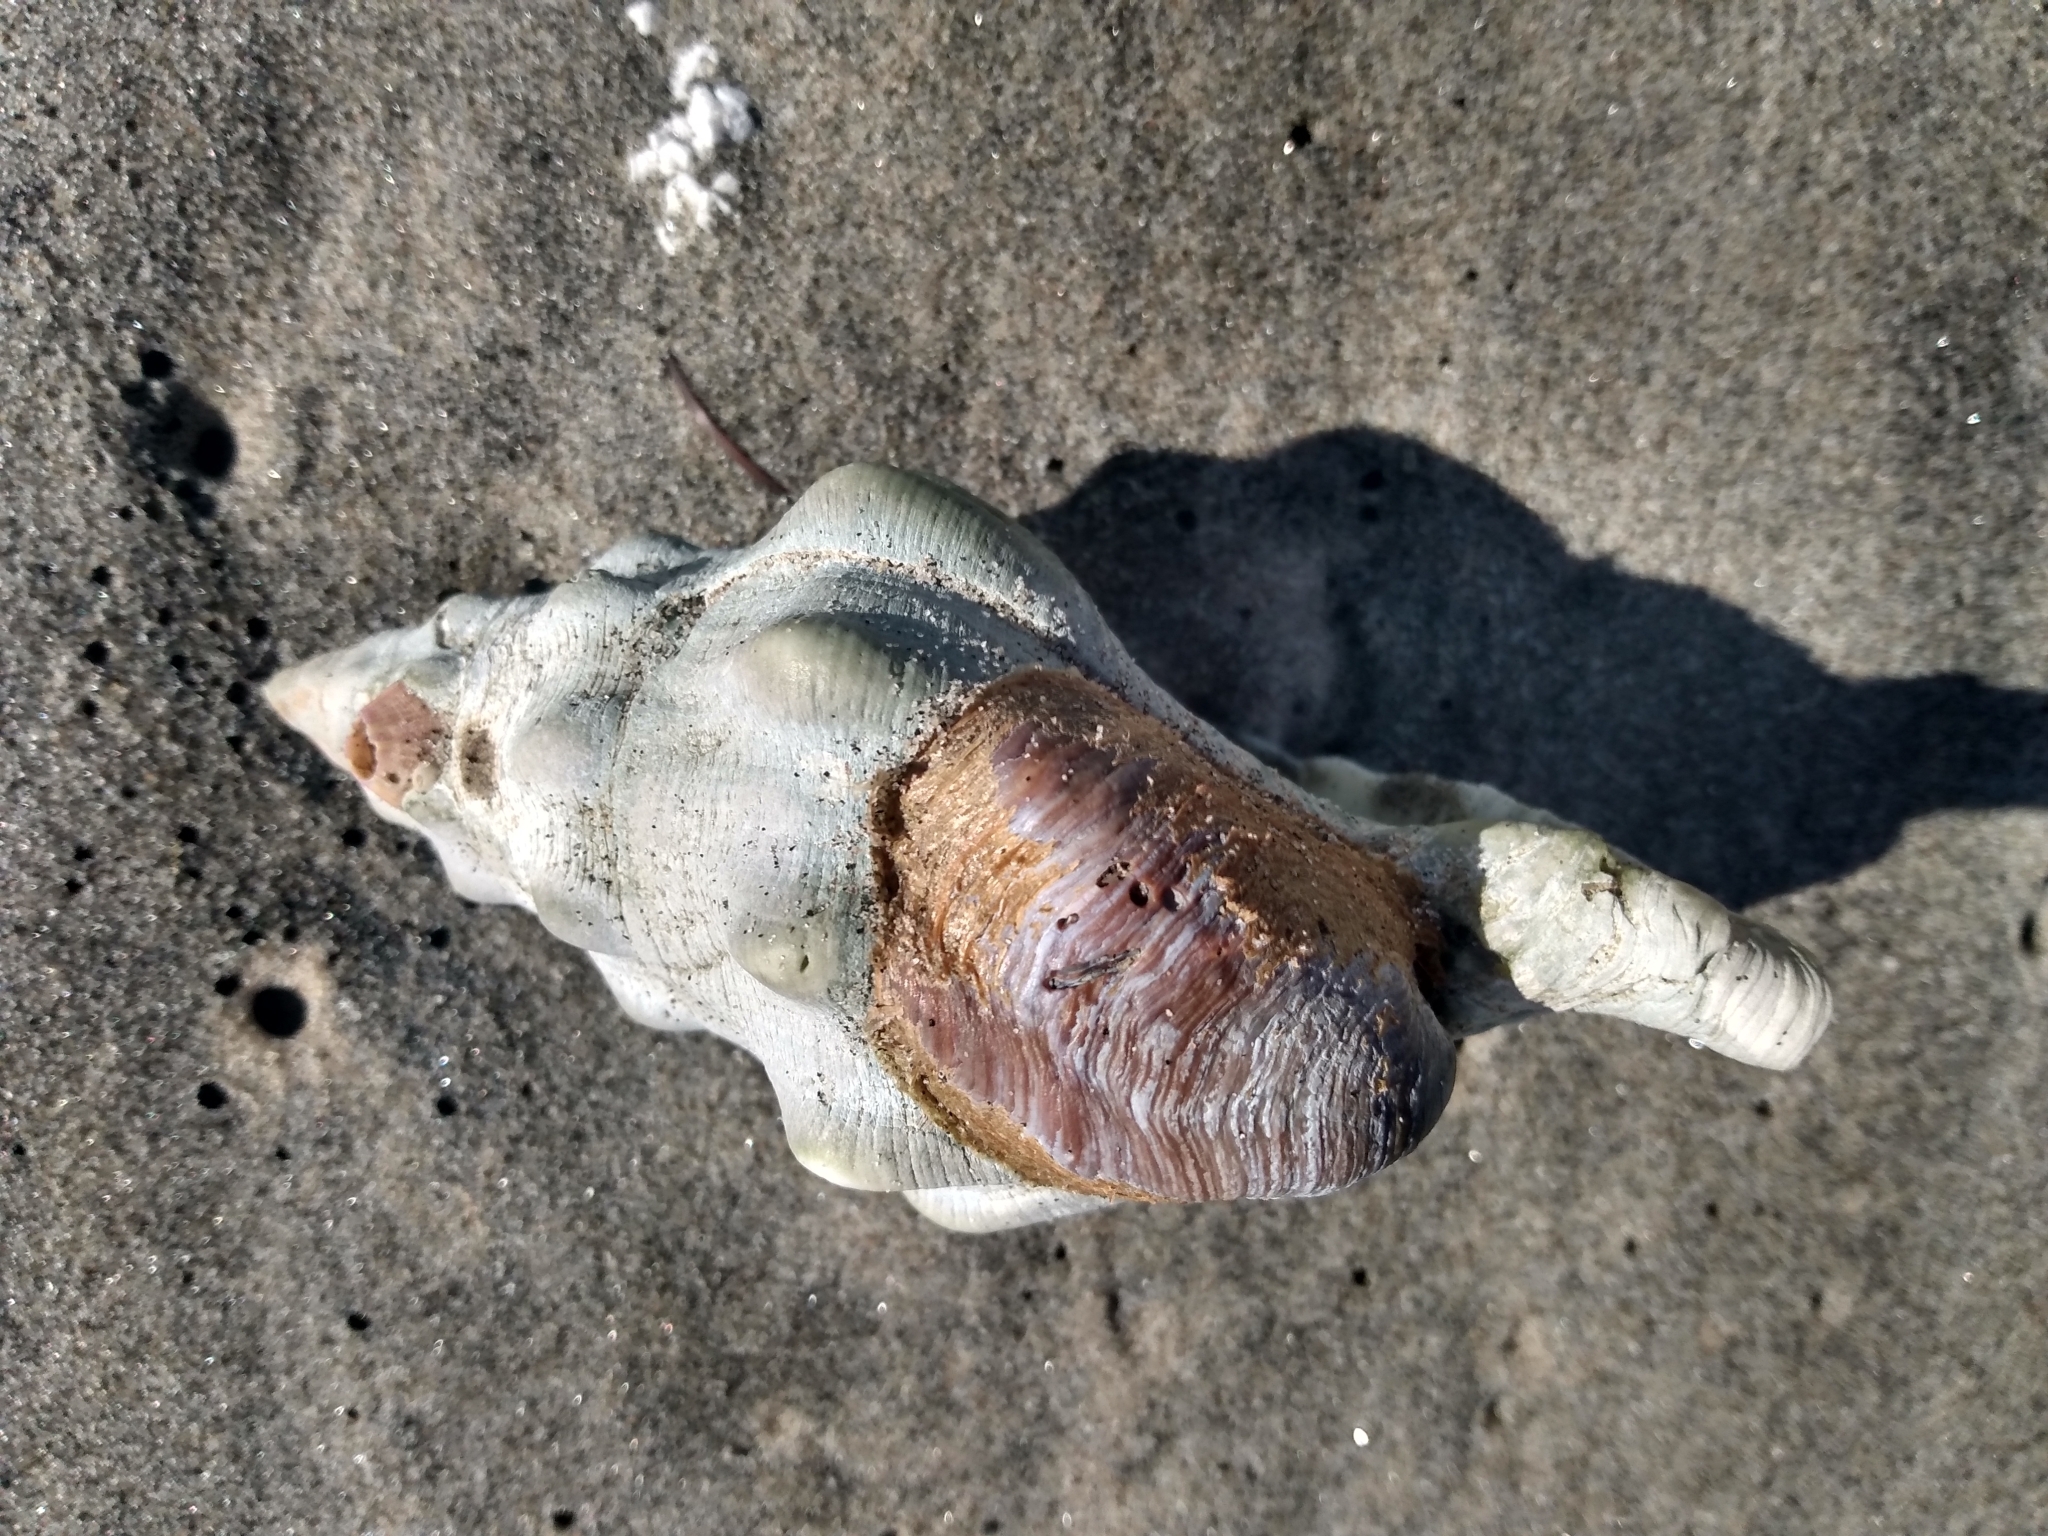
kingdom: Animalia
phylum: Mollusca
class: Gastropoda
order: Neogastropoda
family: Austrosiphonidae
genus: Kelletia
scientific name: Kelletia kelletii
